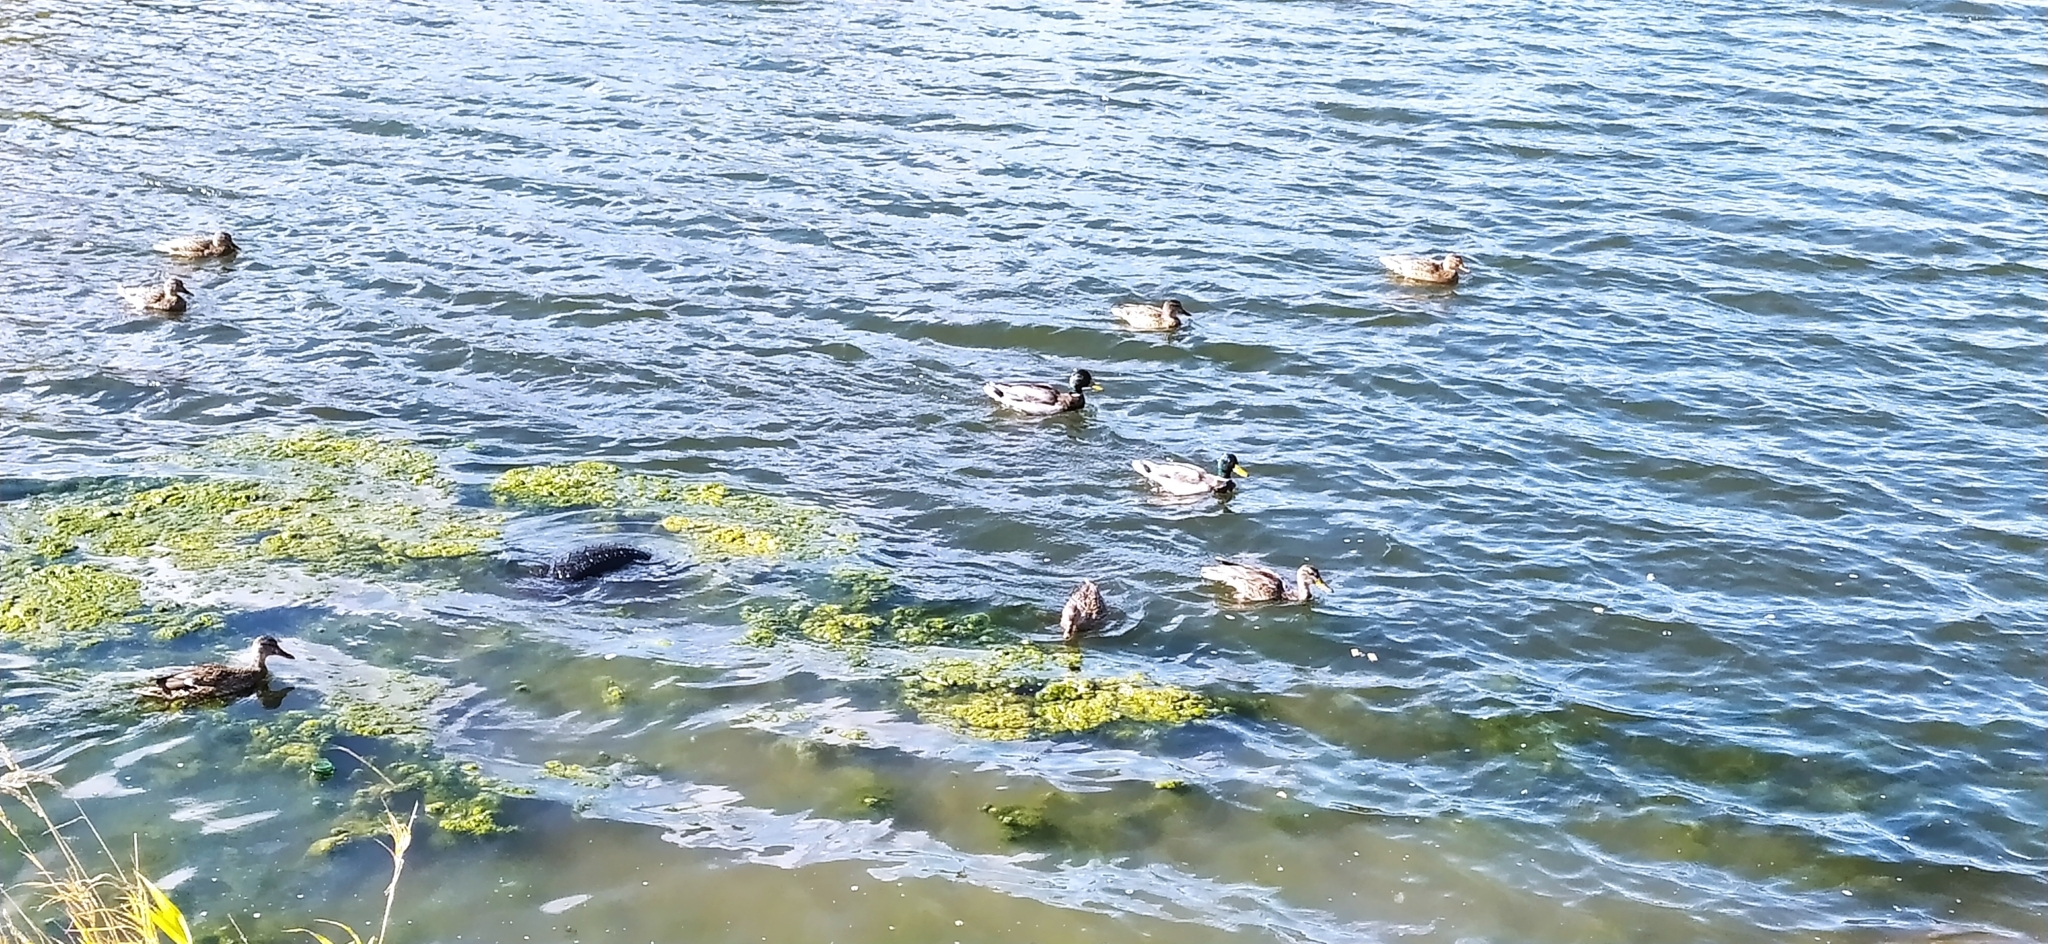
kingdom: Animalia
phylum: Chordata
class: Aves
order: Anseriformes
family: Anatidae
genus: Anas
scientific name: Anas platyrhynchos
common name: Mallard
